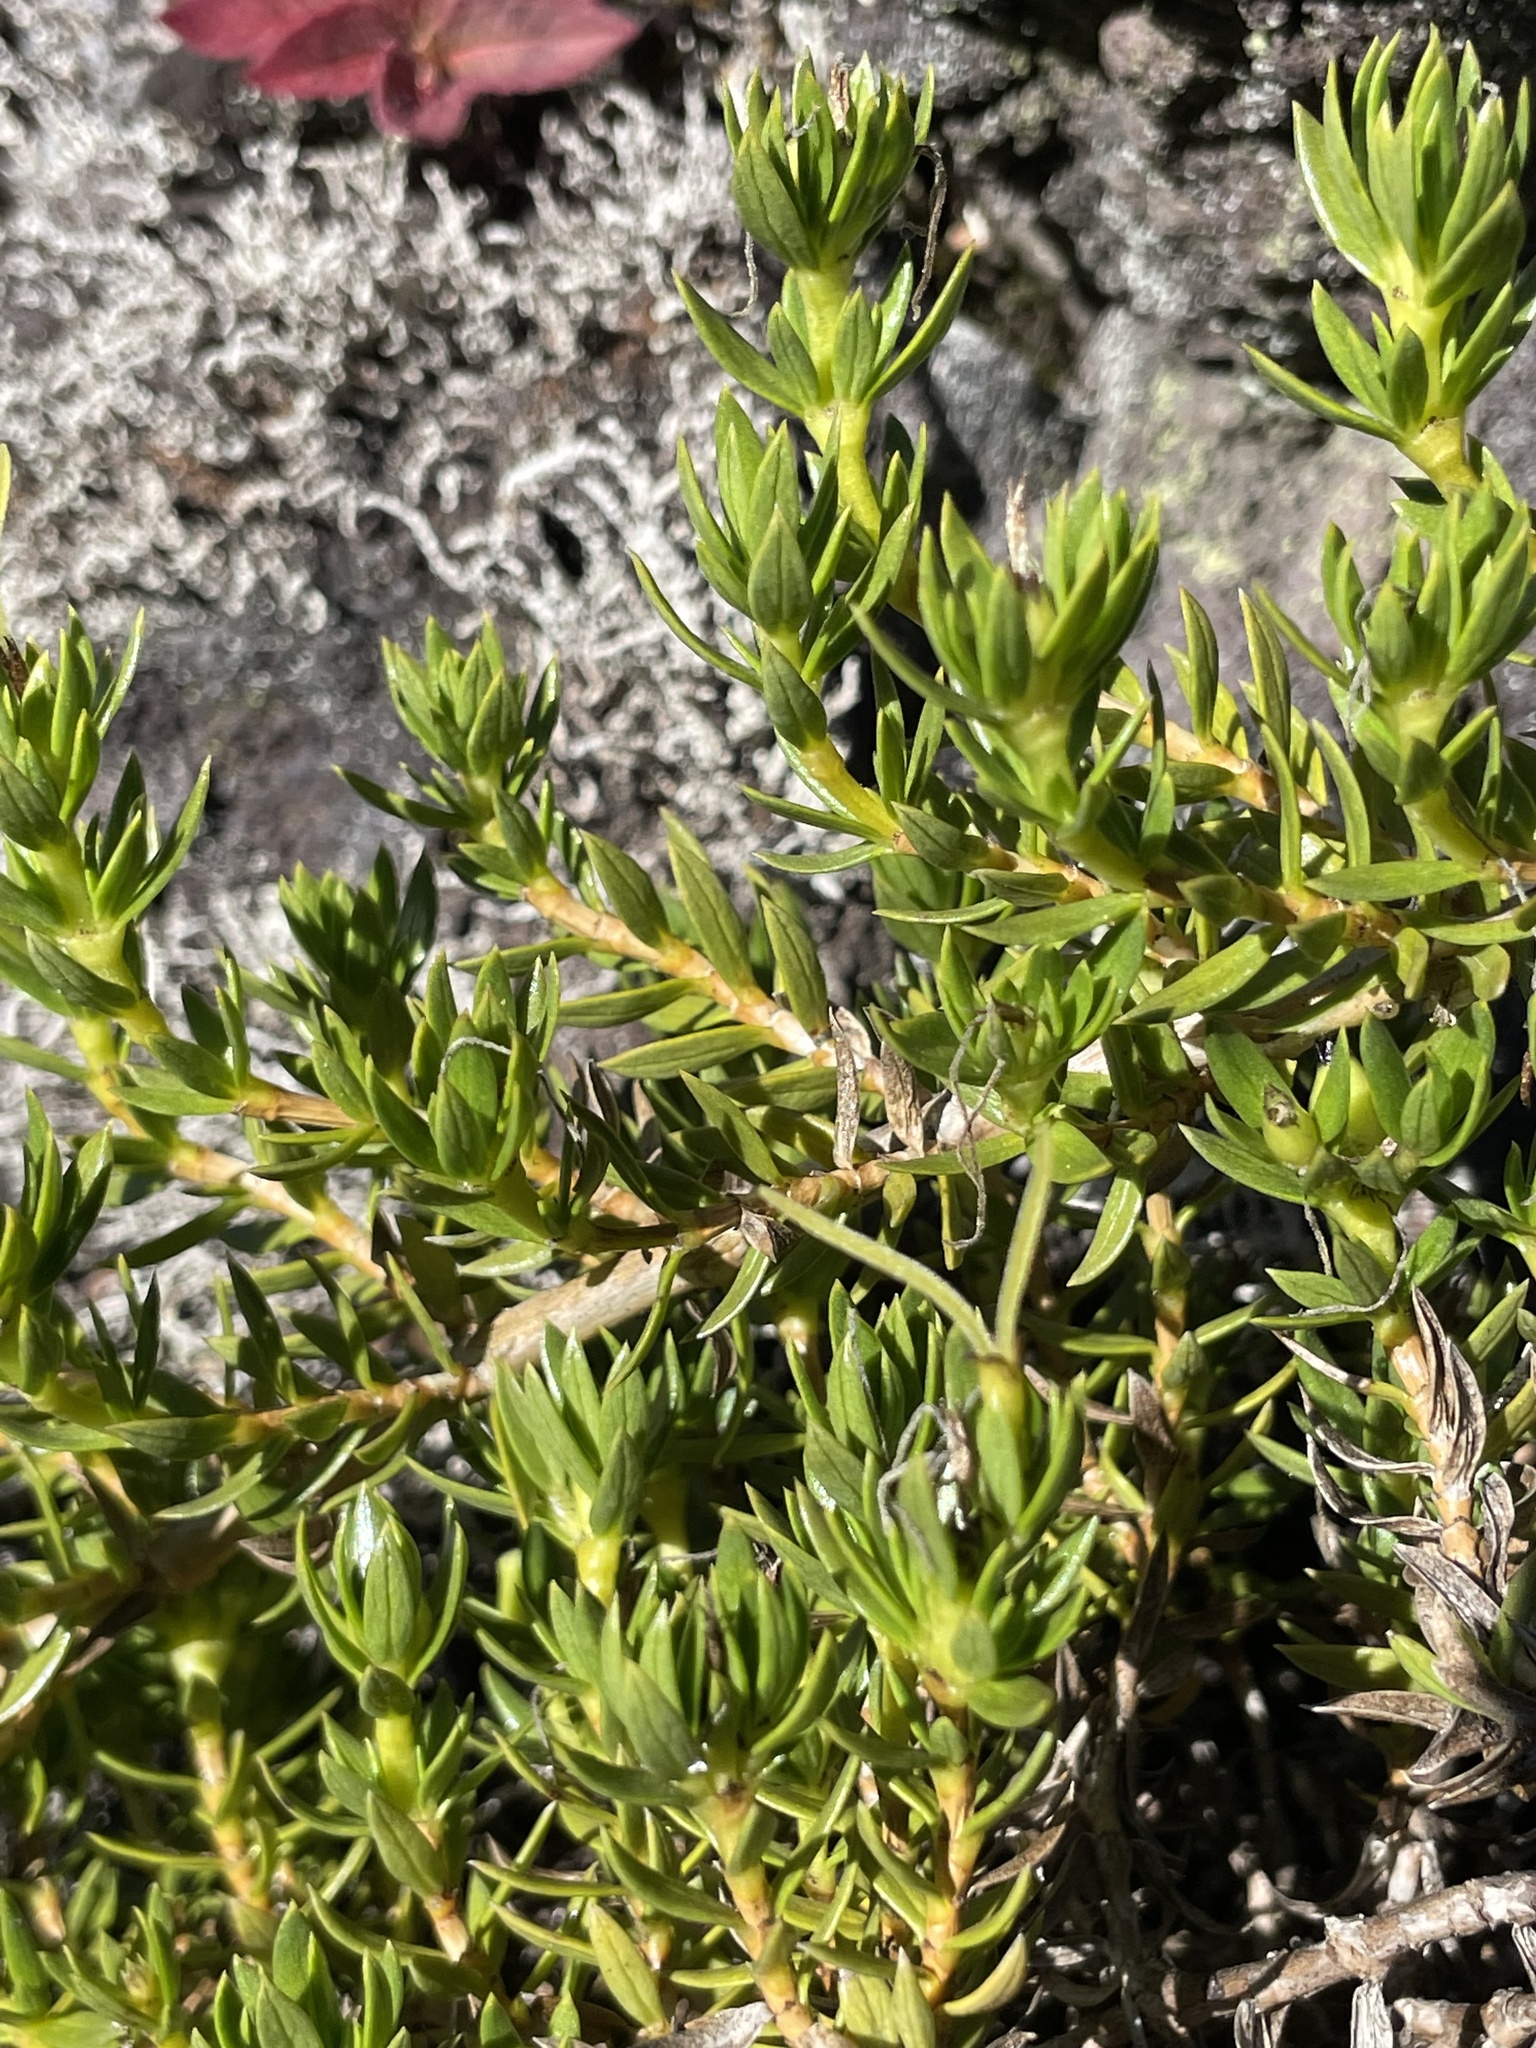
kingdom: Plantae
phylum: Tracheophyta
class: Magnoliopsida
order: Gentianales
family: Rubiaceae
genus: Coprosma
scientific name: Coprosma ernodeoides
